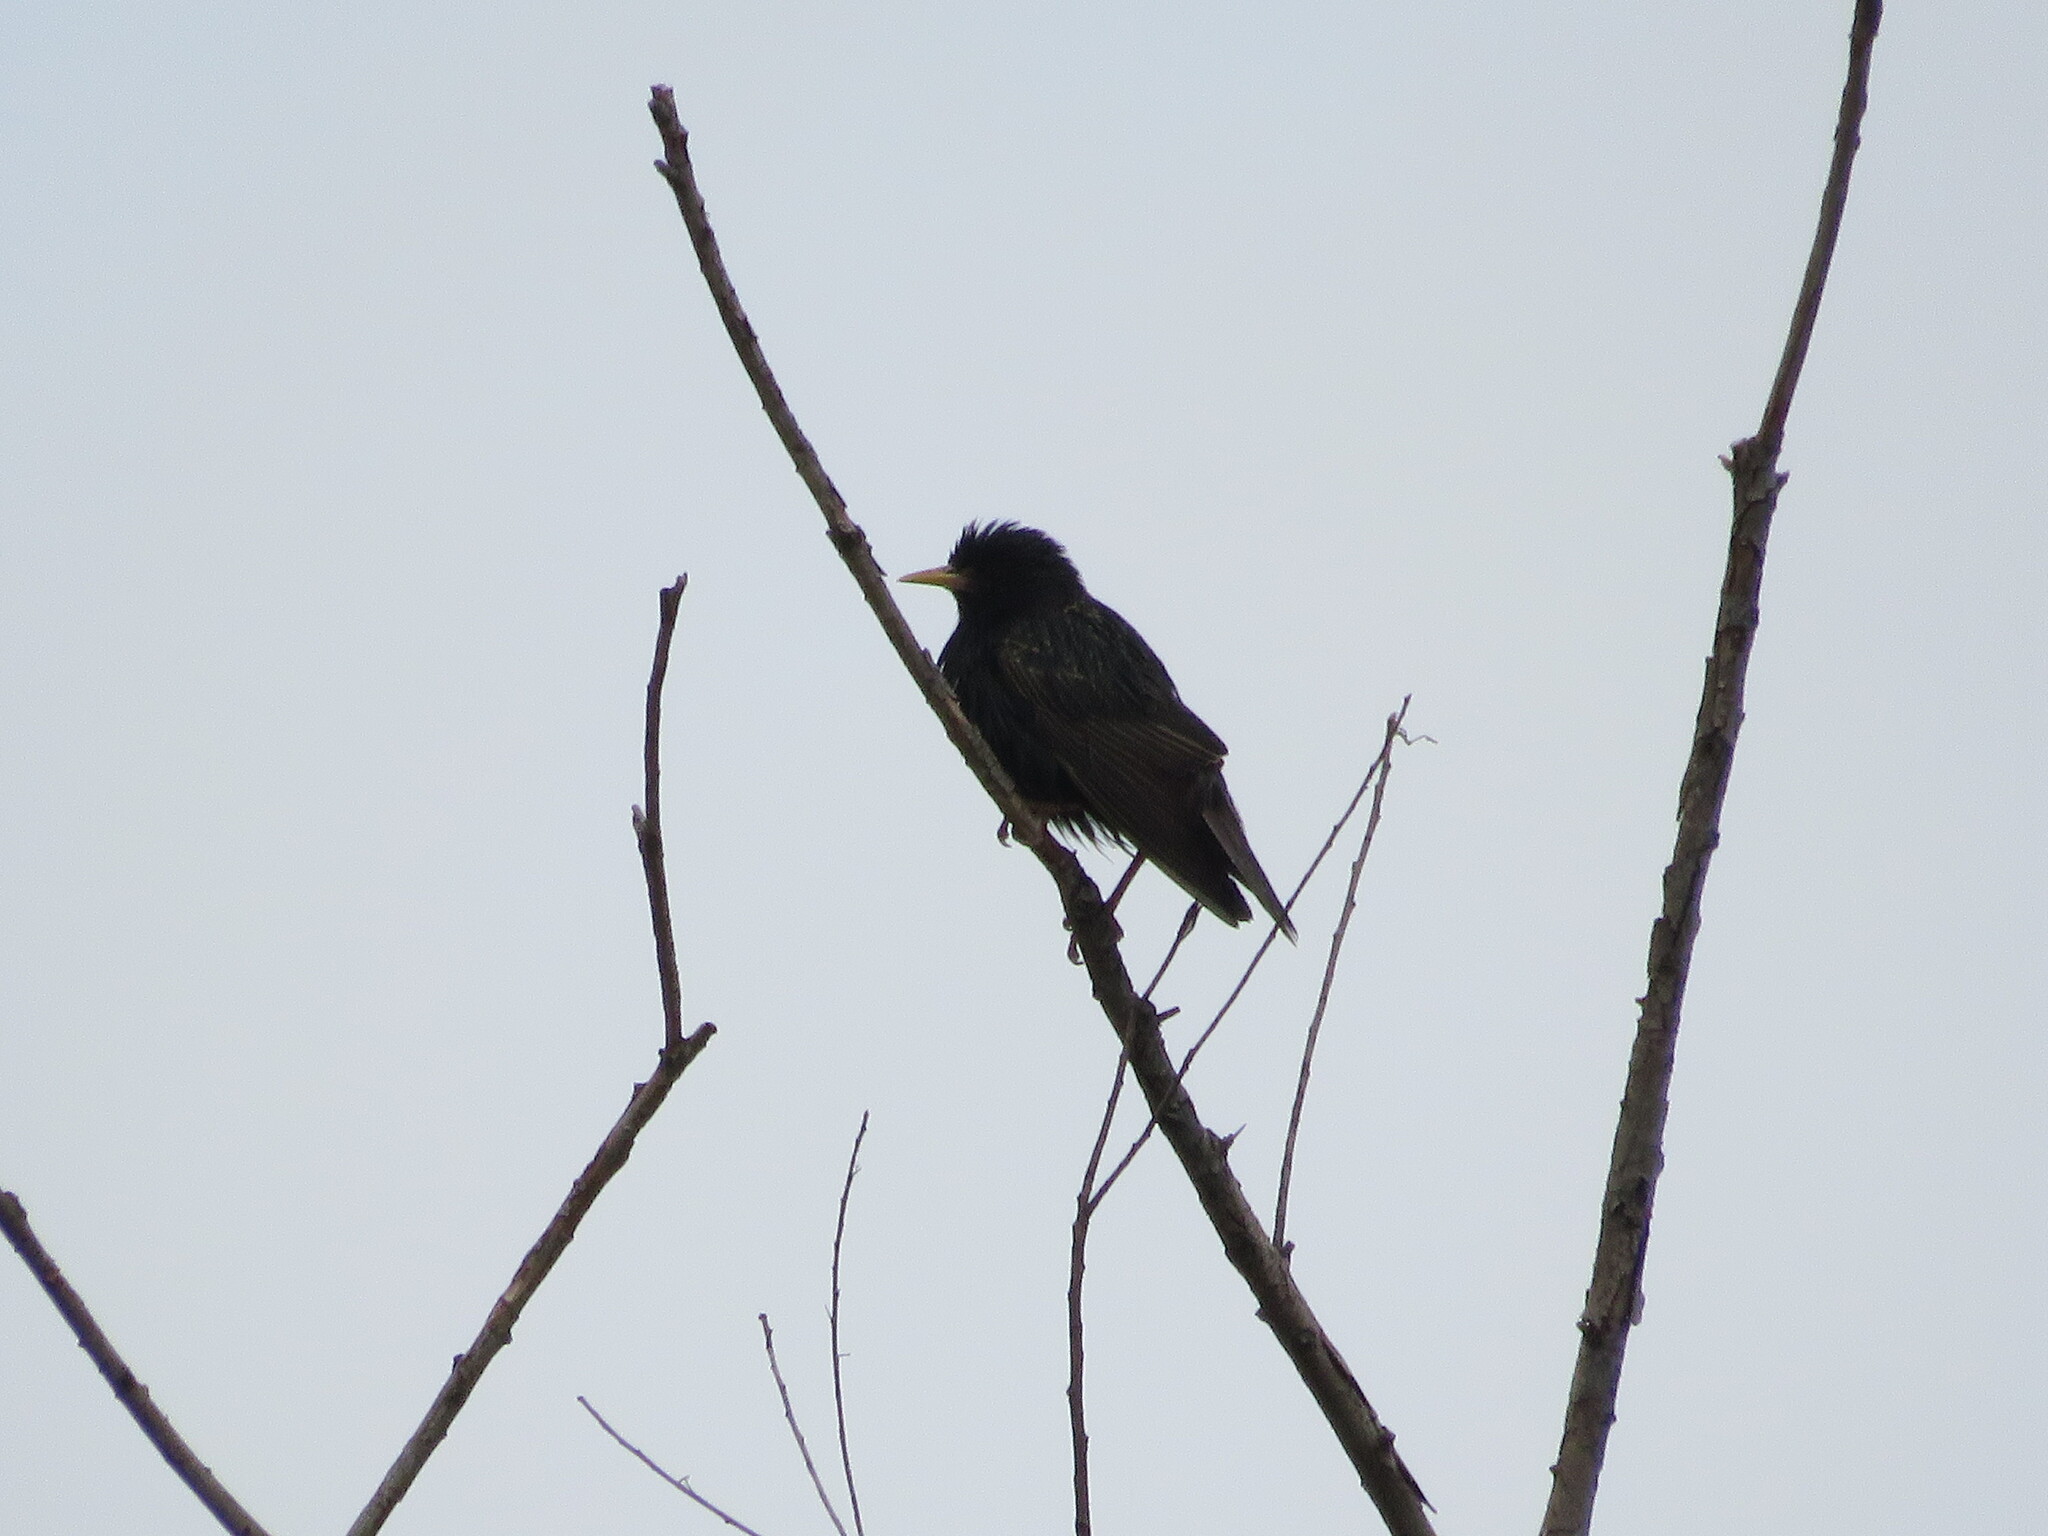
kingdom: Animalia
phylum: Chordata
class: Aves
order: Passeriformes
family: Sturnidae
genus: Sturnus
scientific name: Sturnus vulgaris
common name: Common starling
